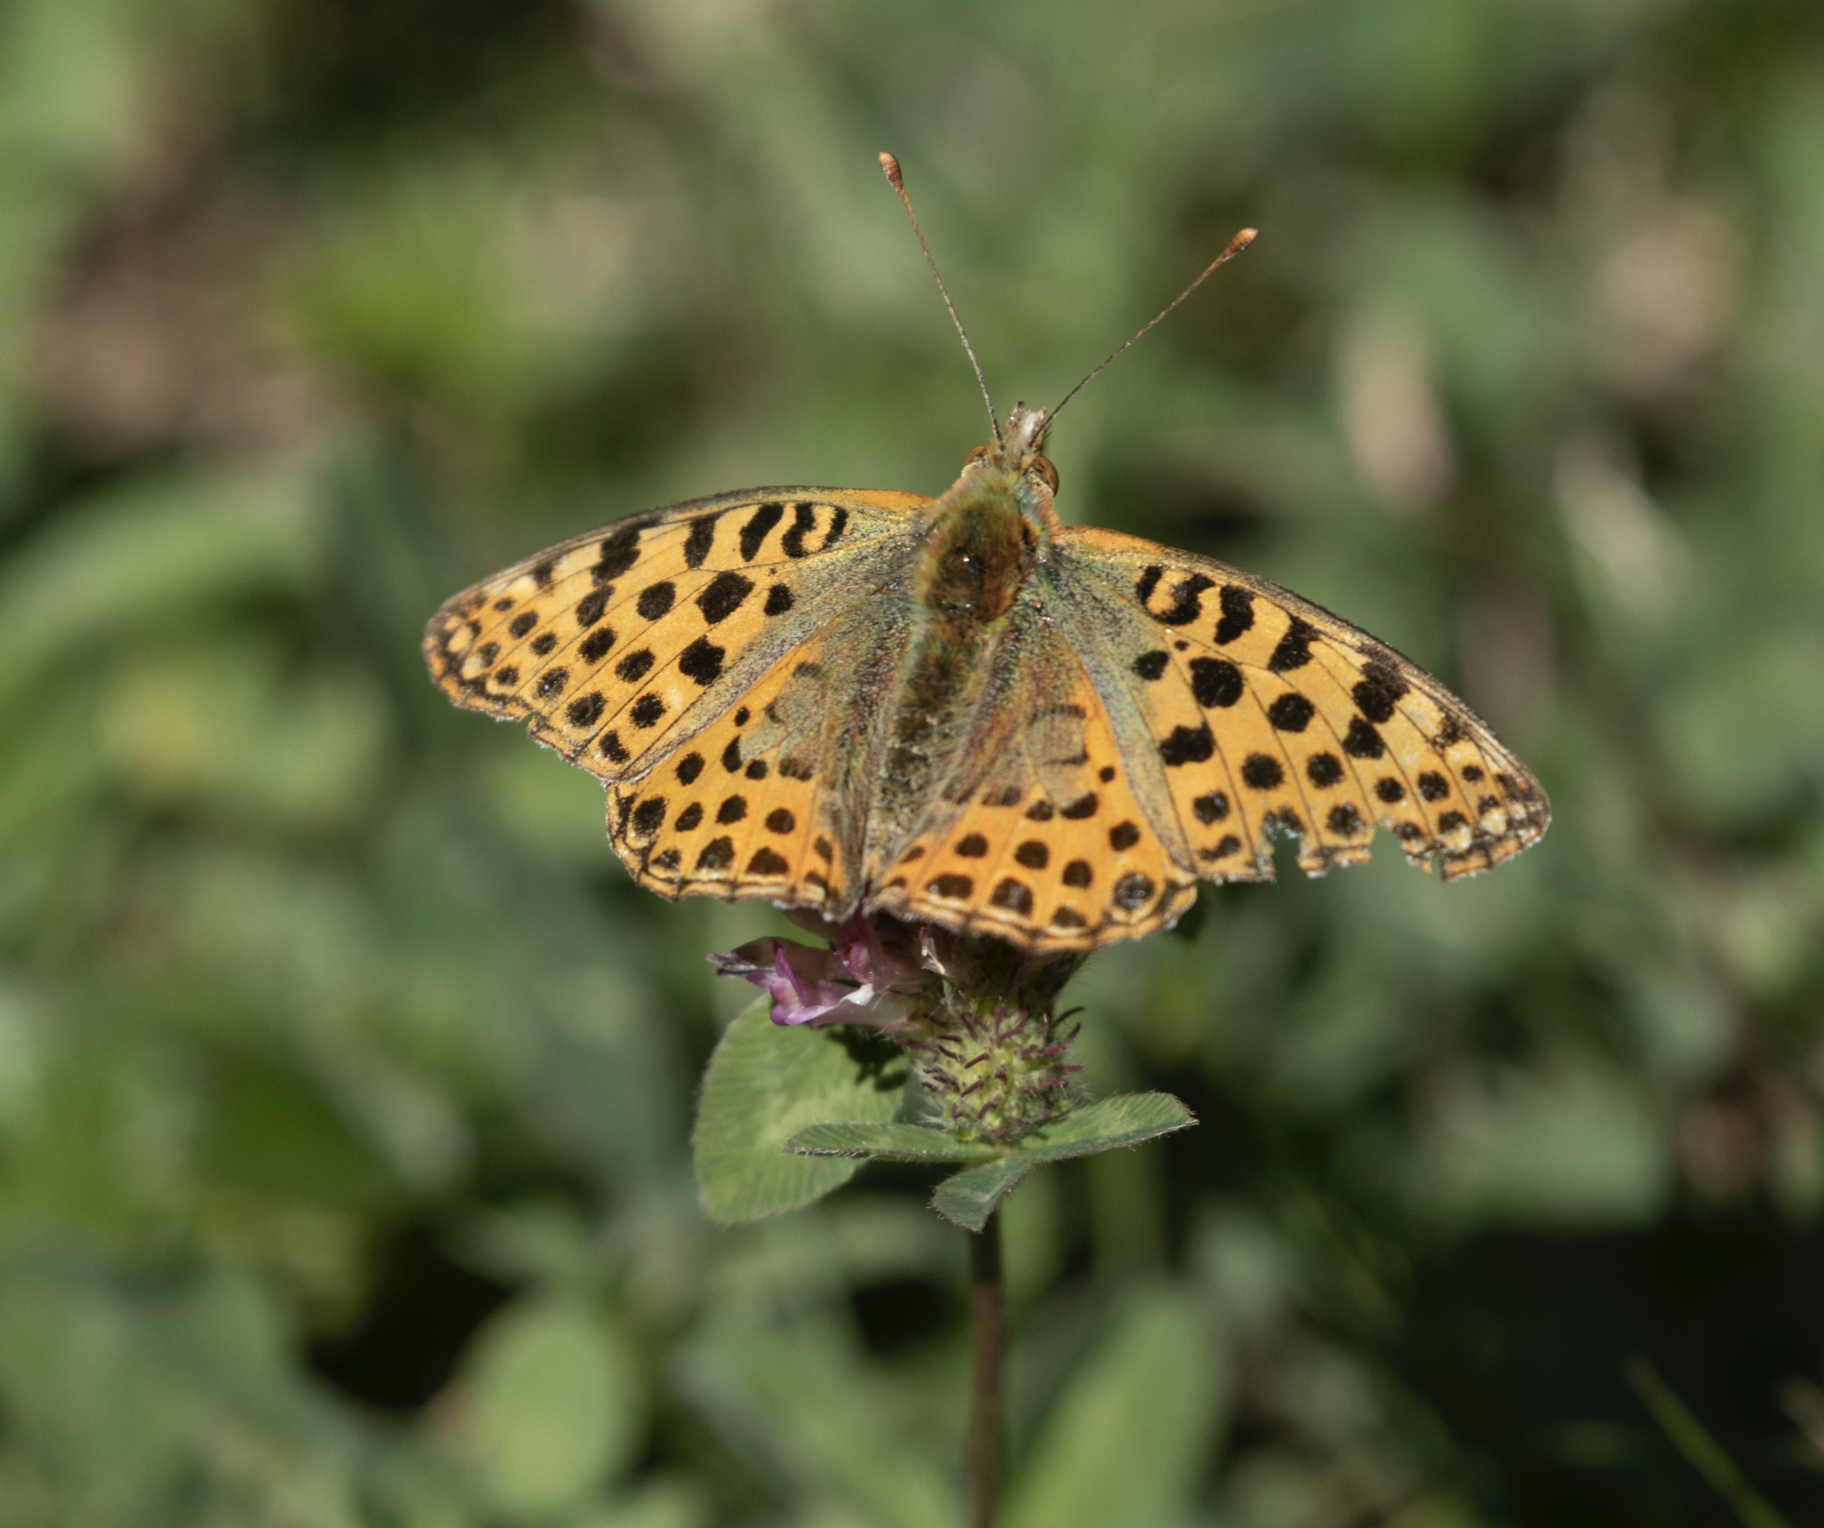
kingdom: Animalia
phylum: Arthropoda
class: Insecta
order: Lepidoptera
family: Nymphalidae
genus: Issoria
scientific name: Issoria lathonia
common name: Queen of spain fritillary
